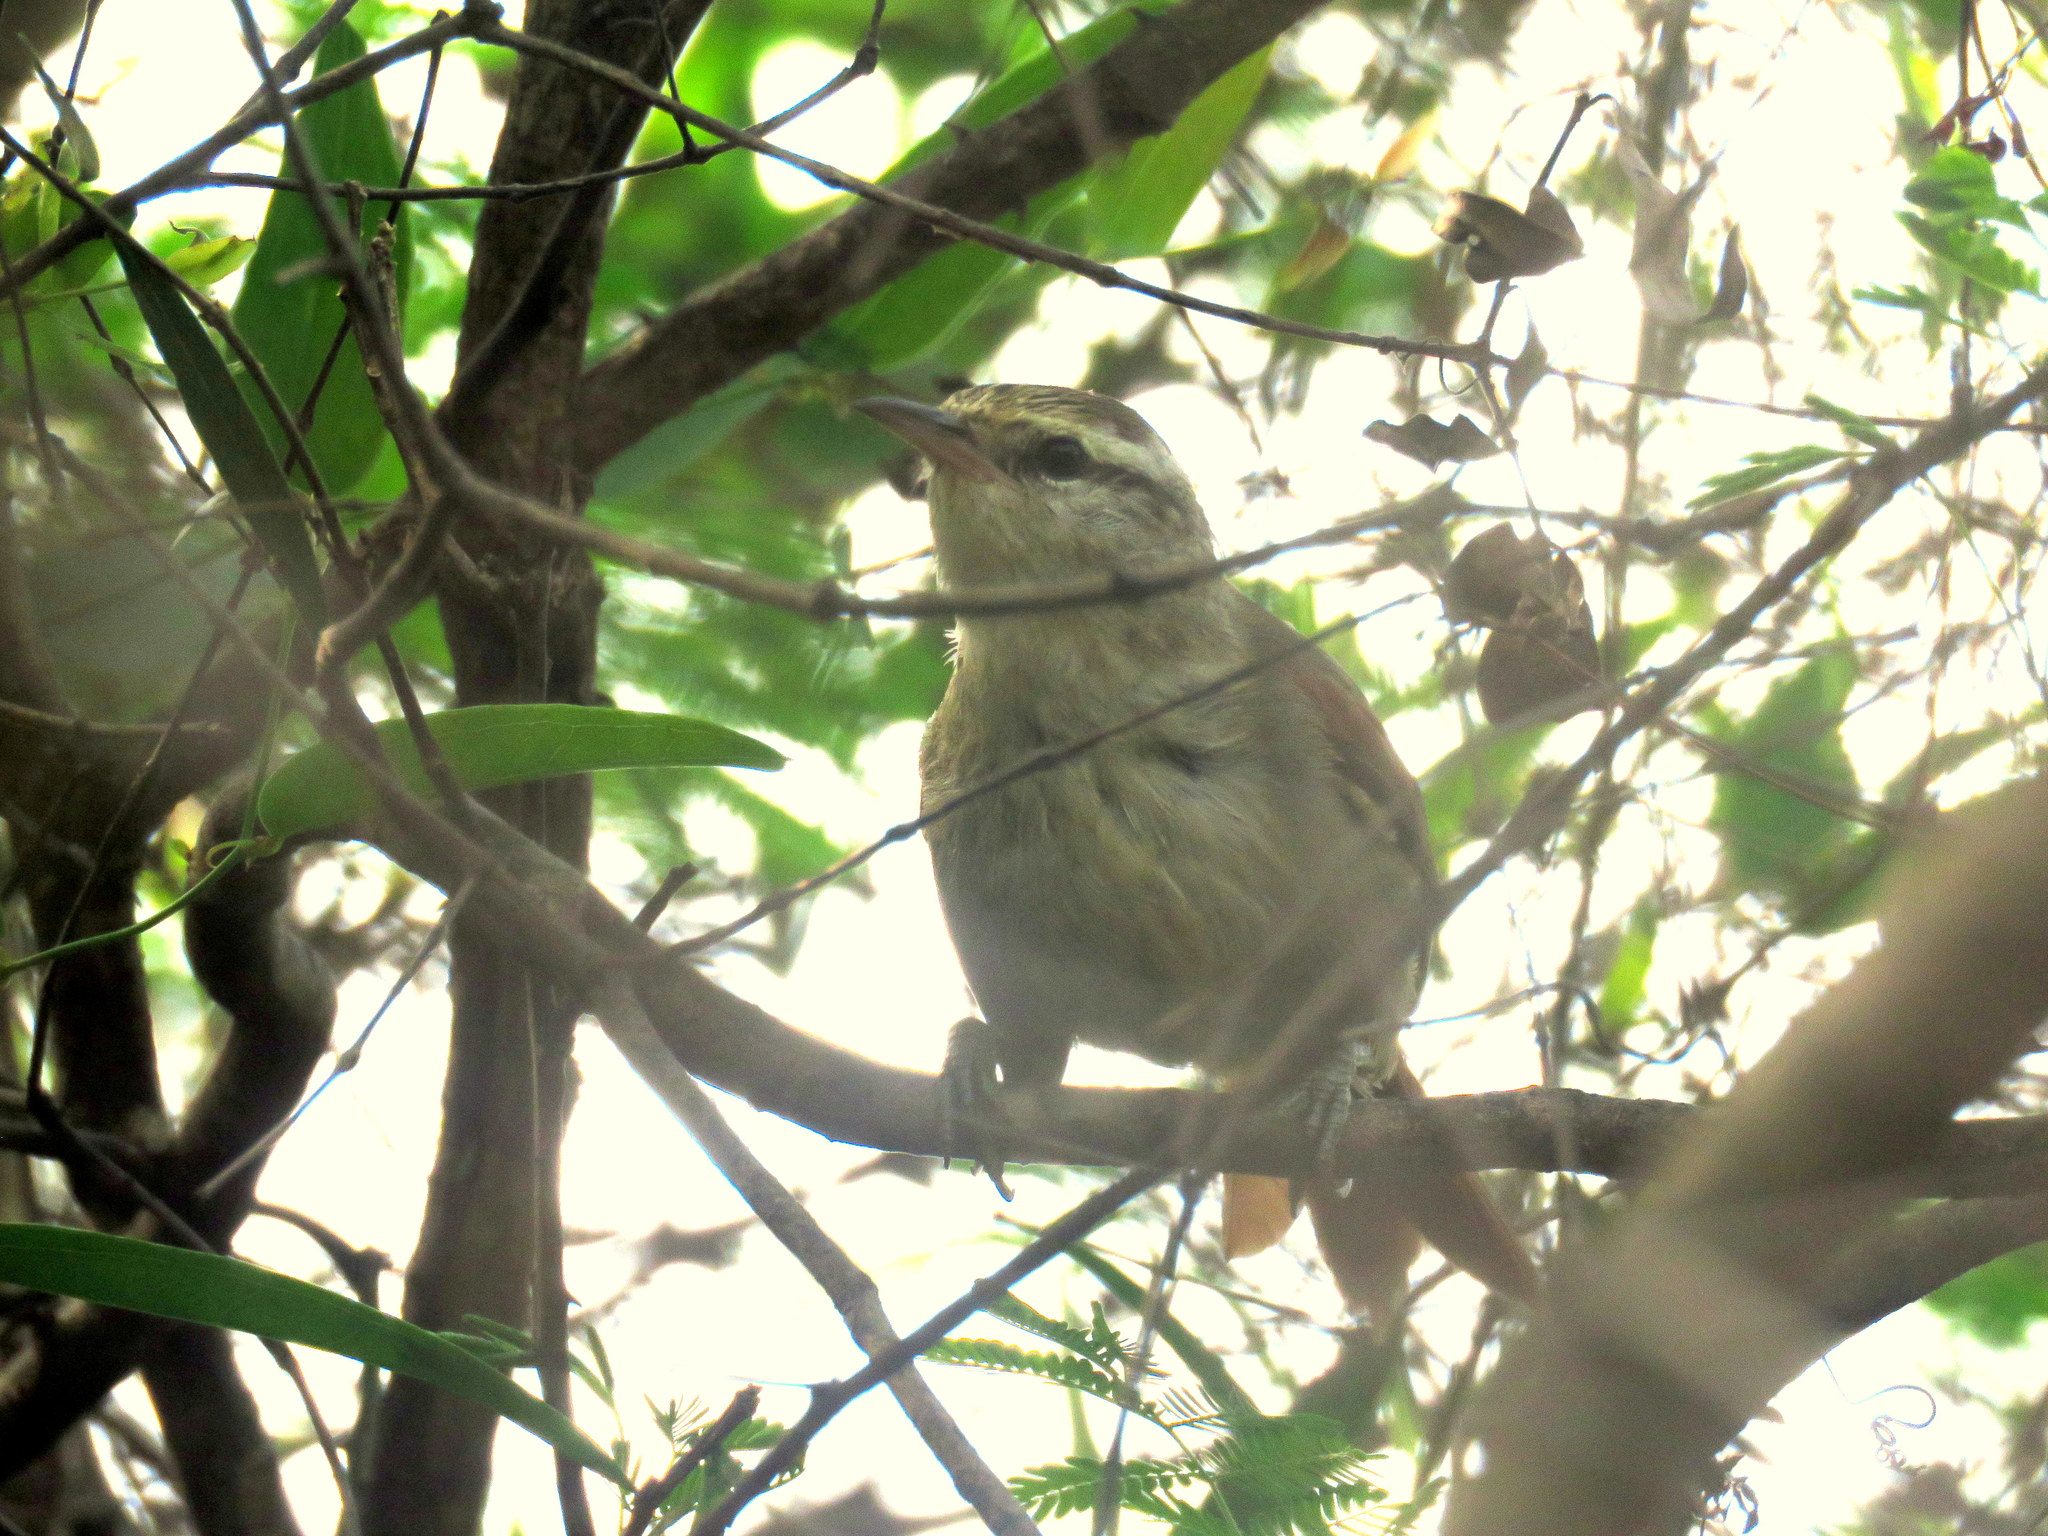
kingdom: Animalia
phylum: Chordata
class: Aves
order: Passeriformes
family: Furnariidae
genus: Cranioleuca
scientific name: Cranioleuca pyrrhophia
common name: Stripe-crowned spinetail
